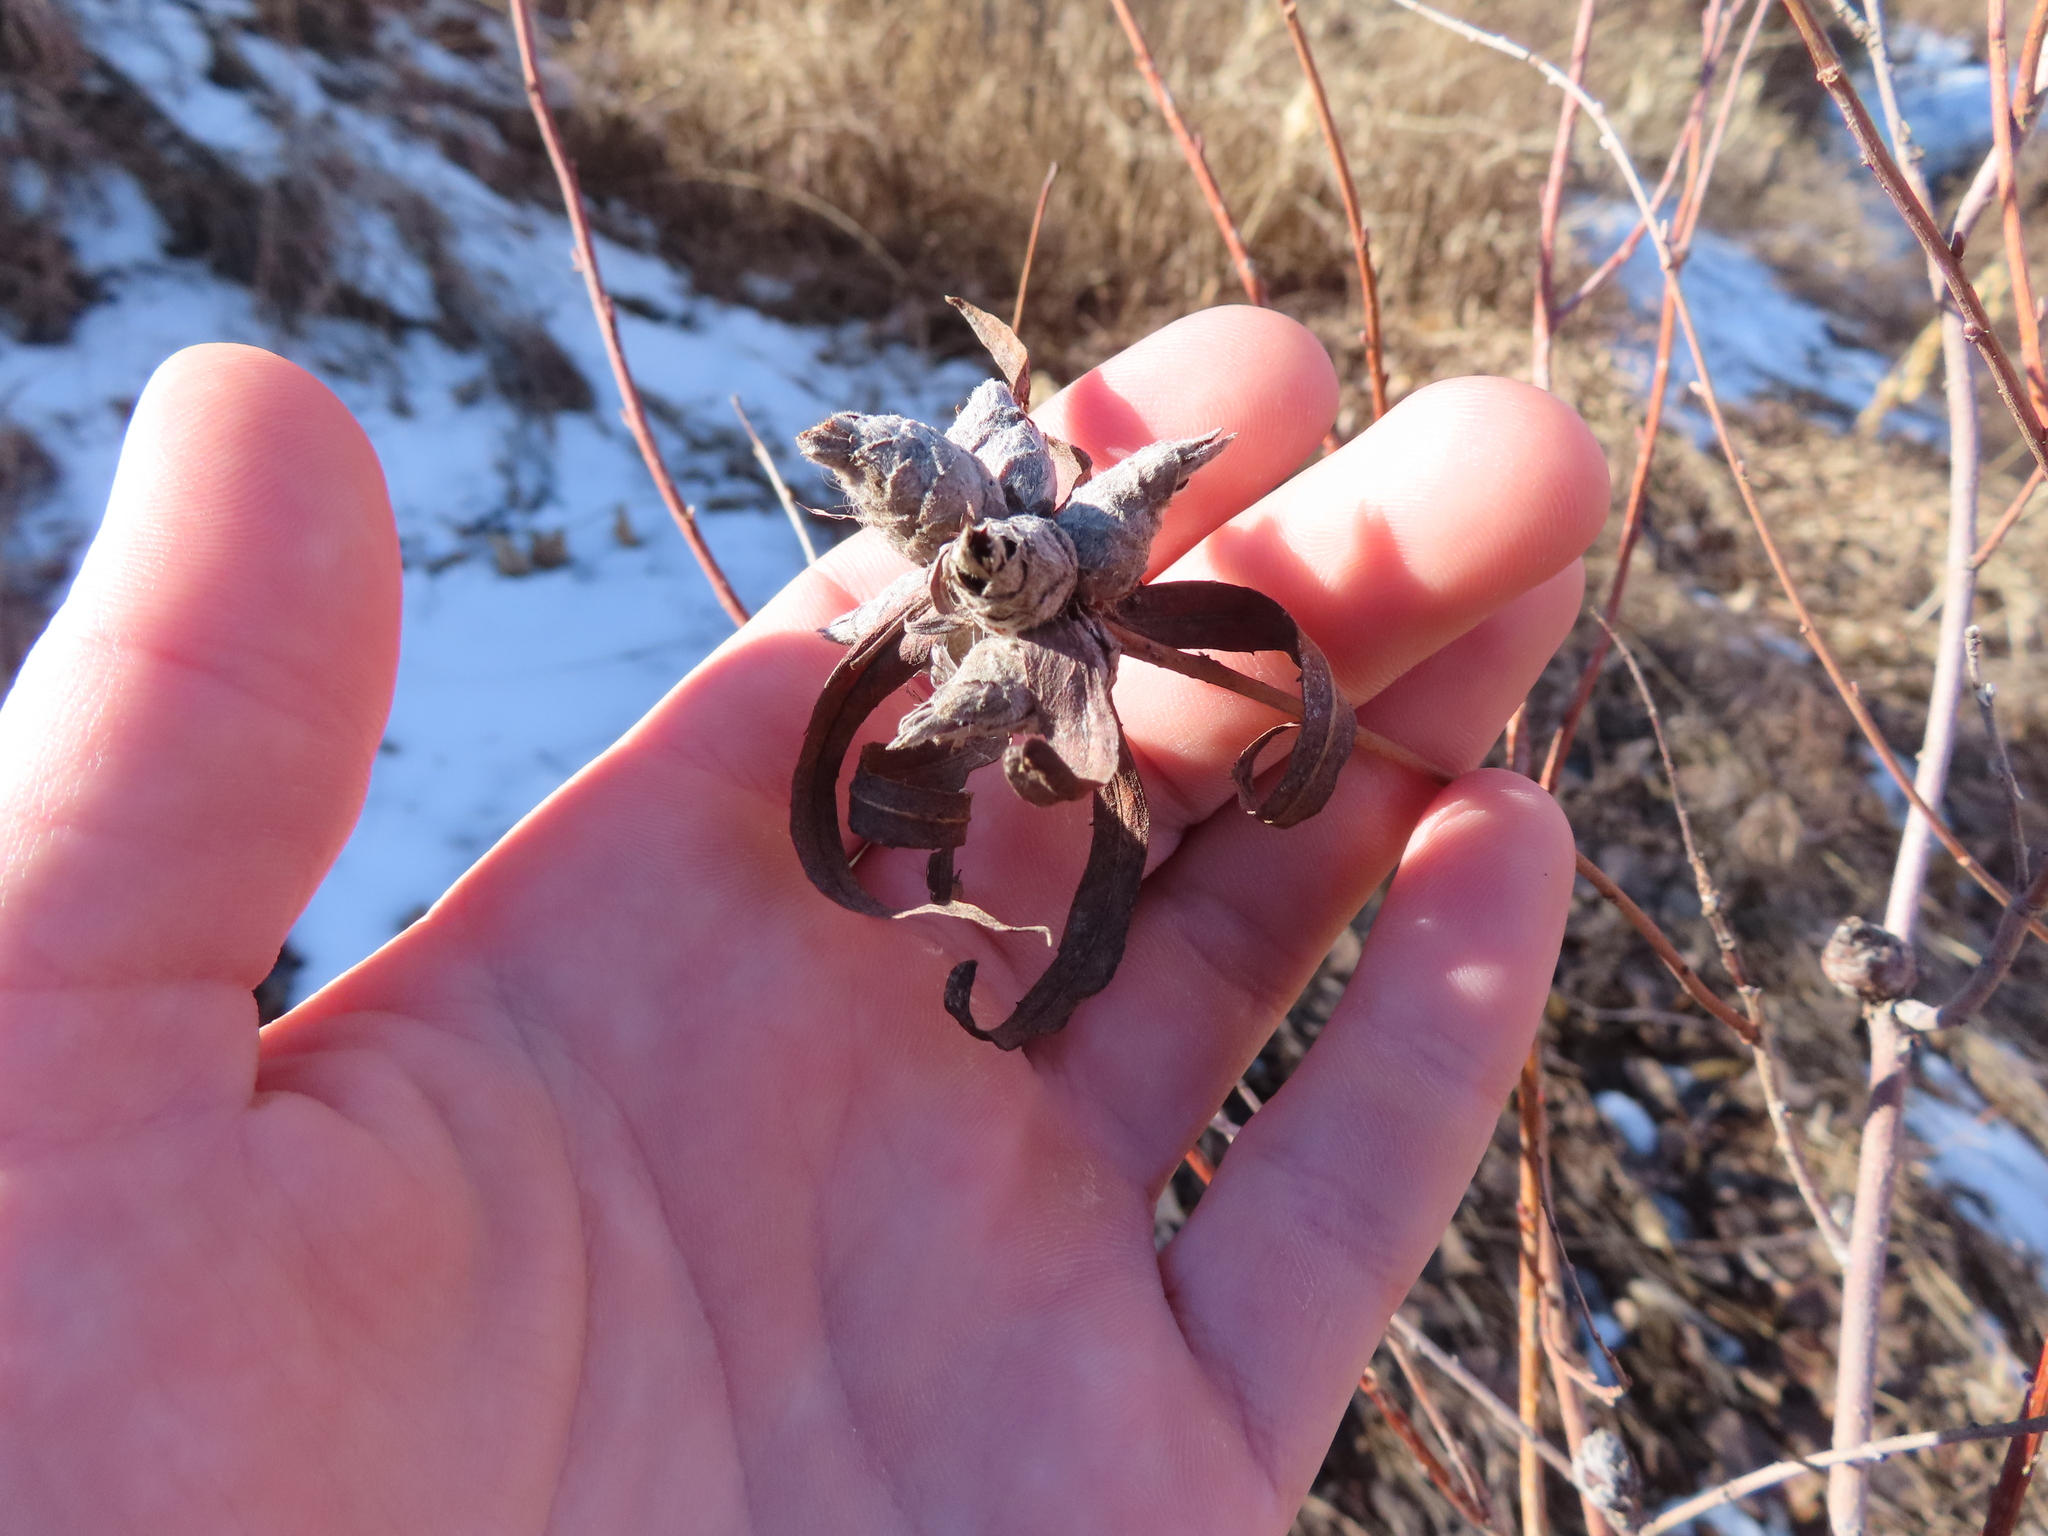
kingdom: Animalia
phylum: Arthropoda
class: Insecta
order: Diptera
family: Cecidomyiidae
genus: Rabdophaga
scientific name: Rabdophaga strobiloides
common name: Willow pinecone gall midge
